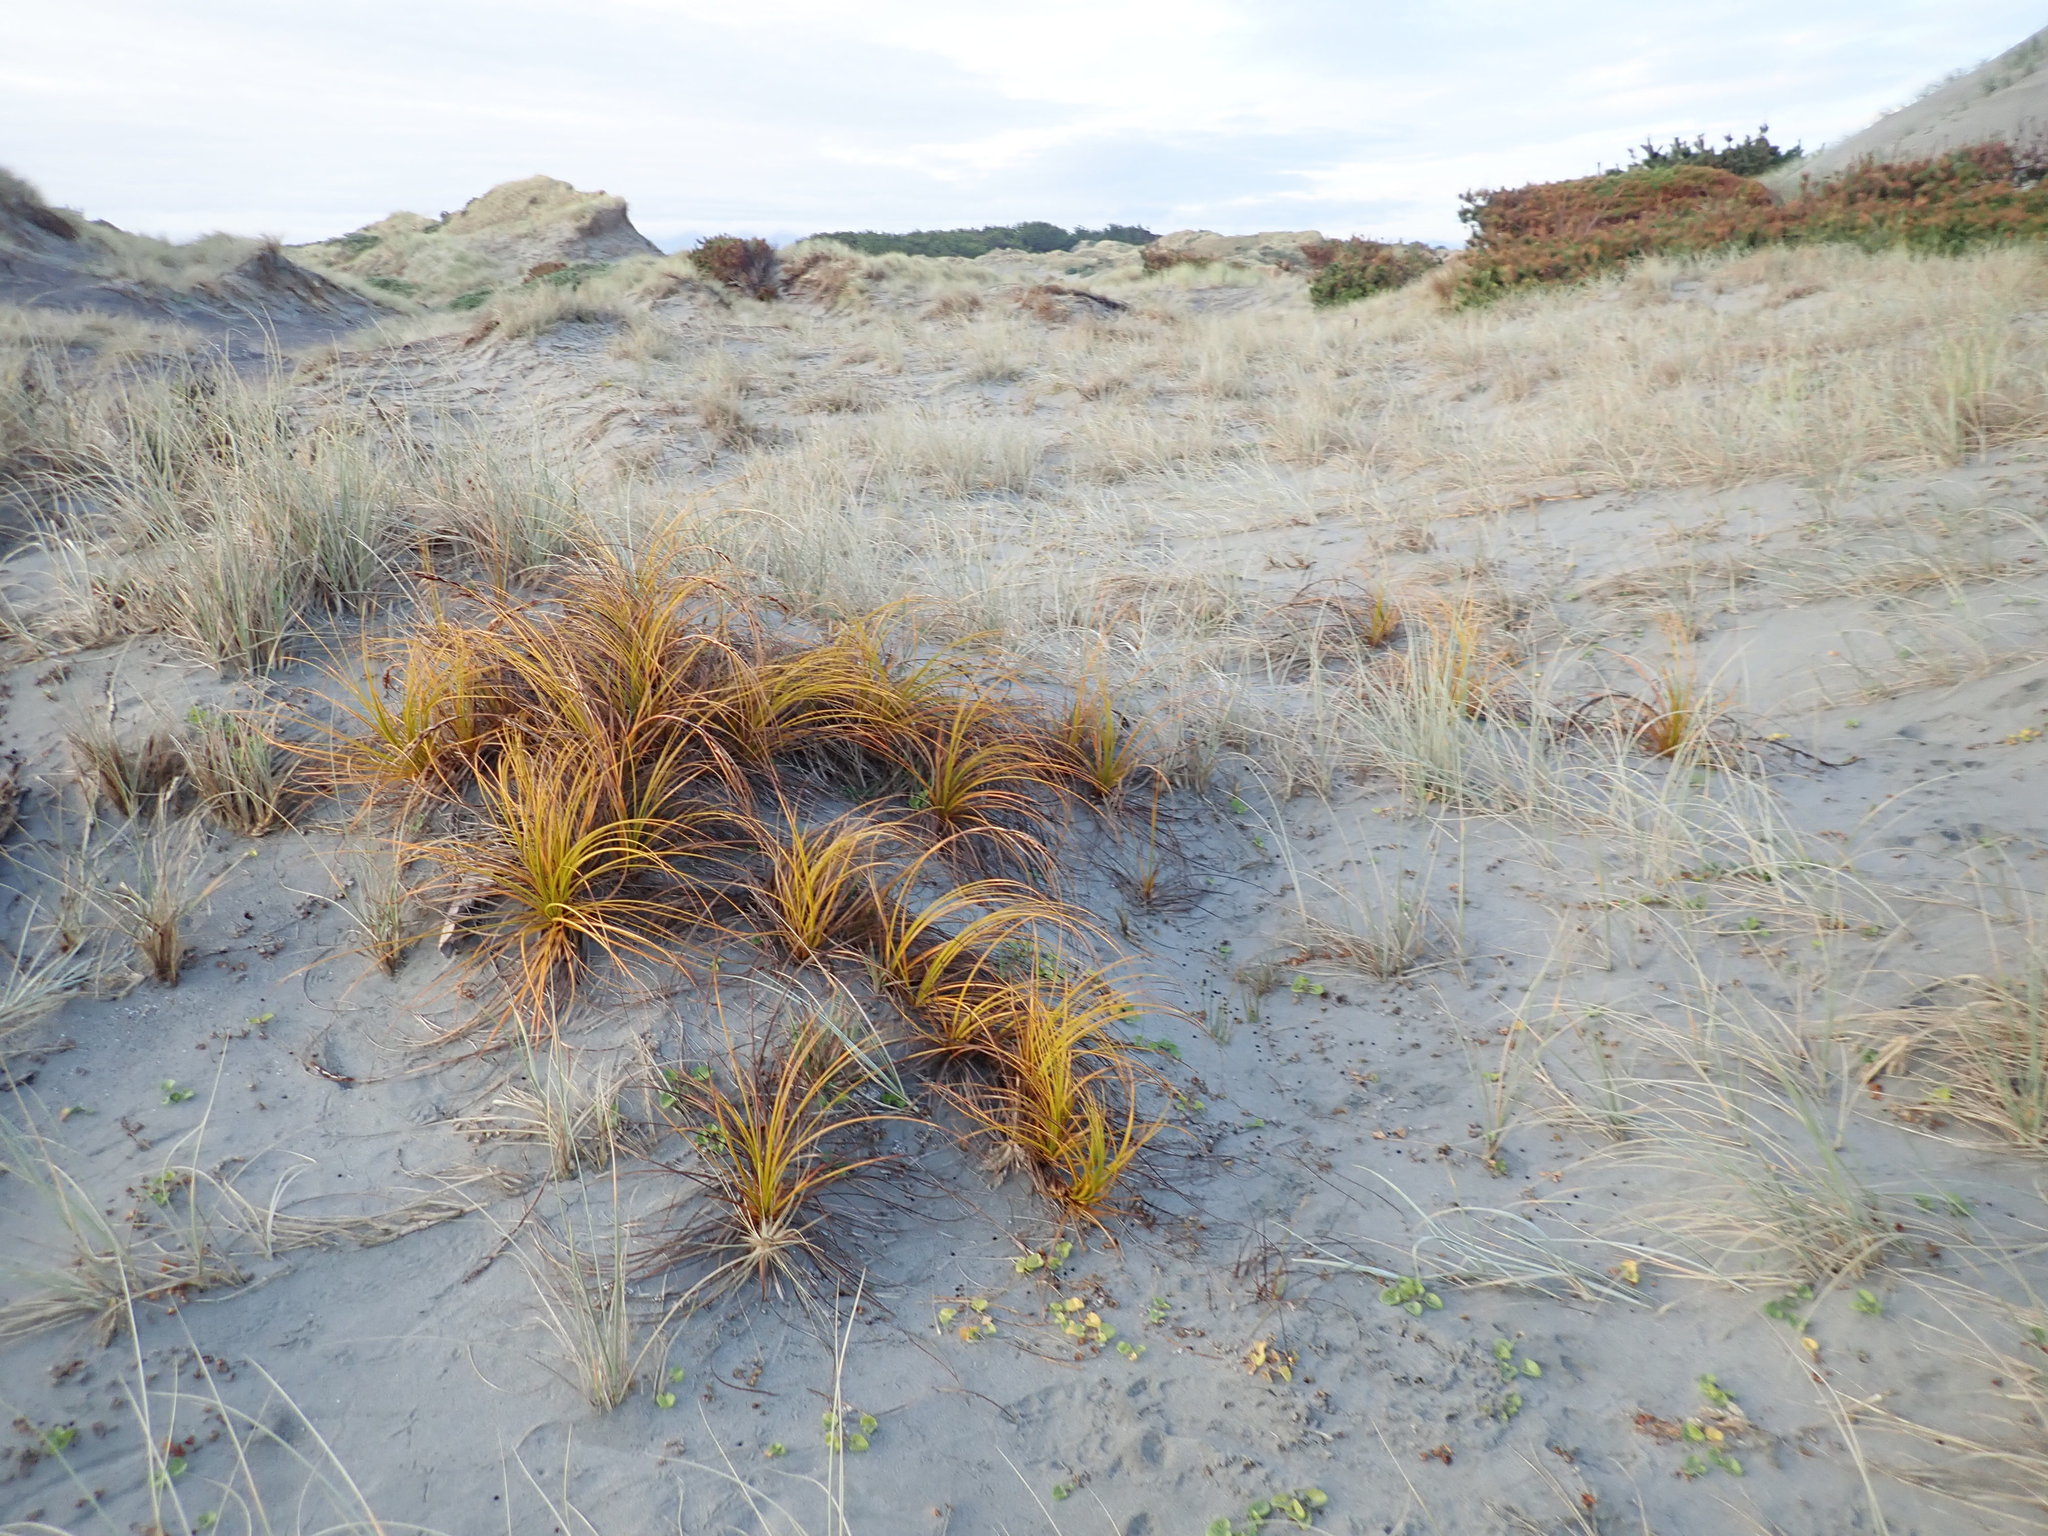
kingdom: Plantae
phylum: Tracheophyta
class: Liliopsida
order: Poales
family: Cyperaceae
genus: Ficinia
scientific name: Ficinia spiralis
